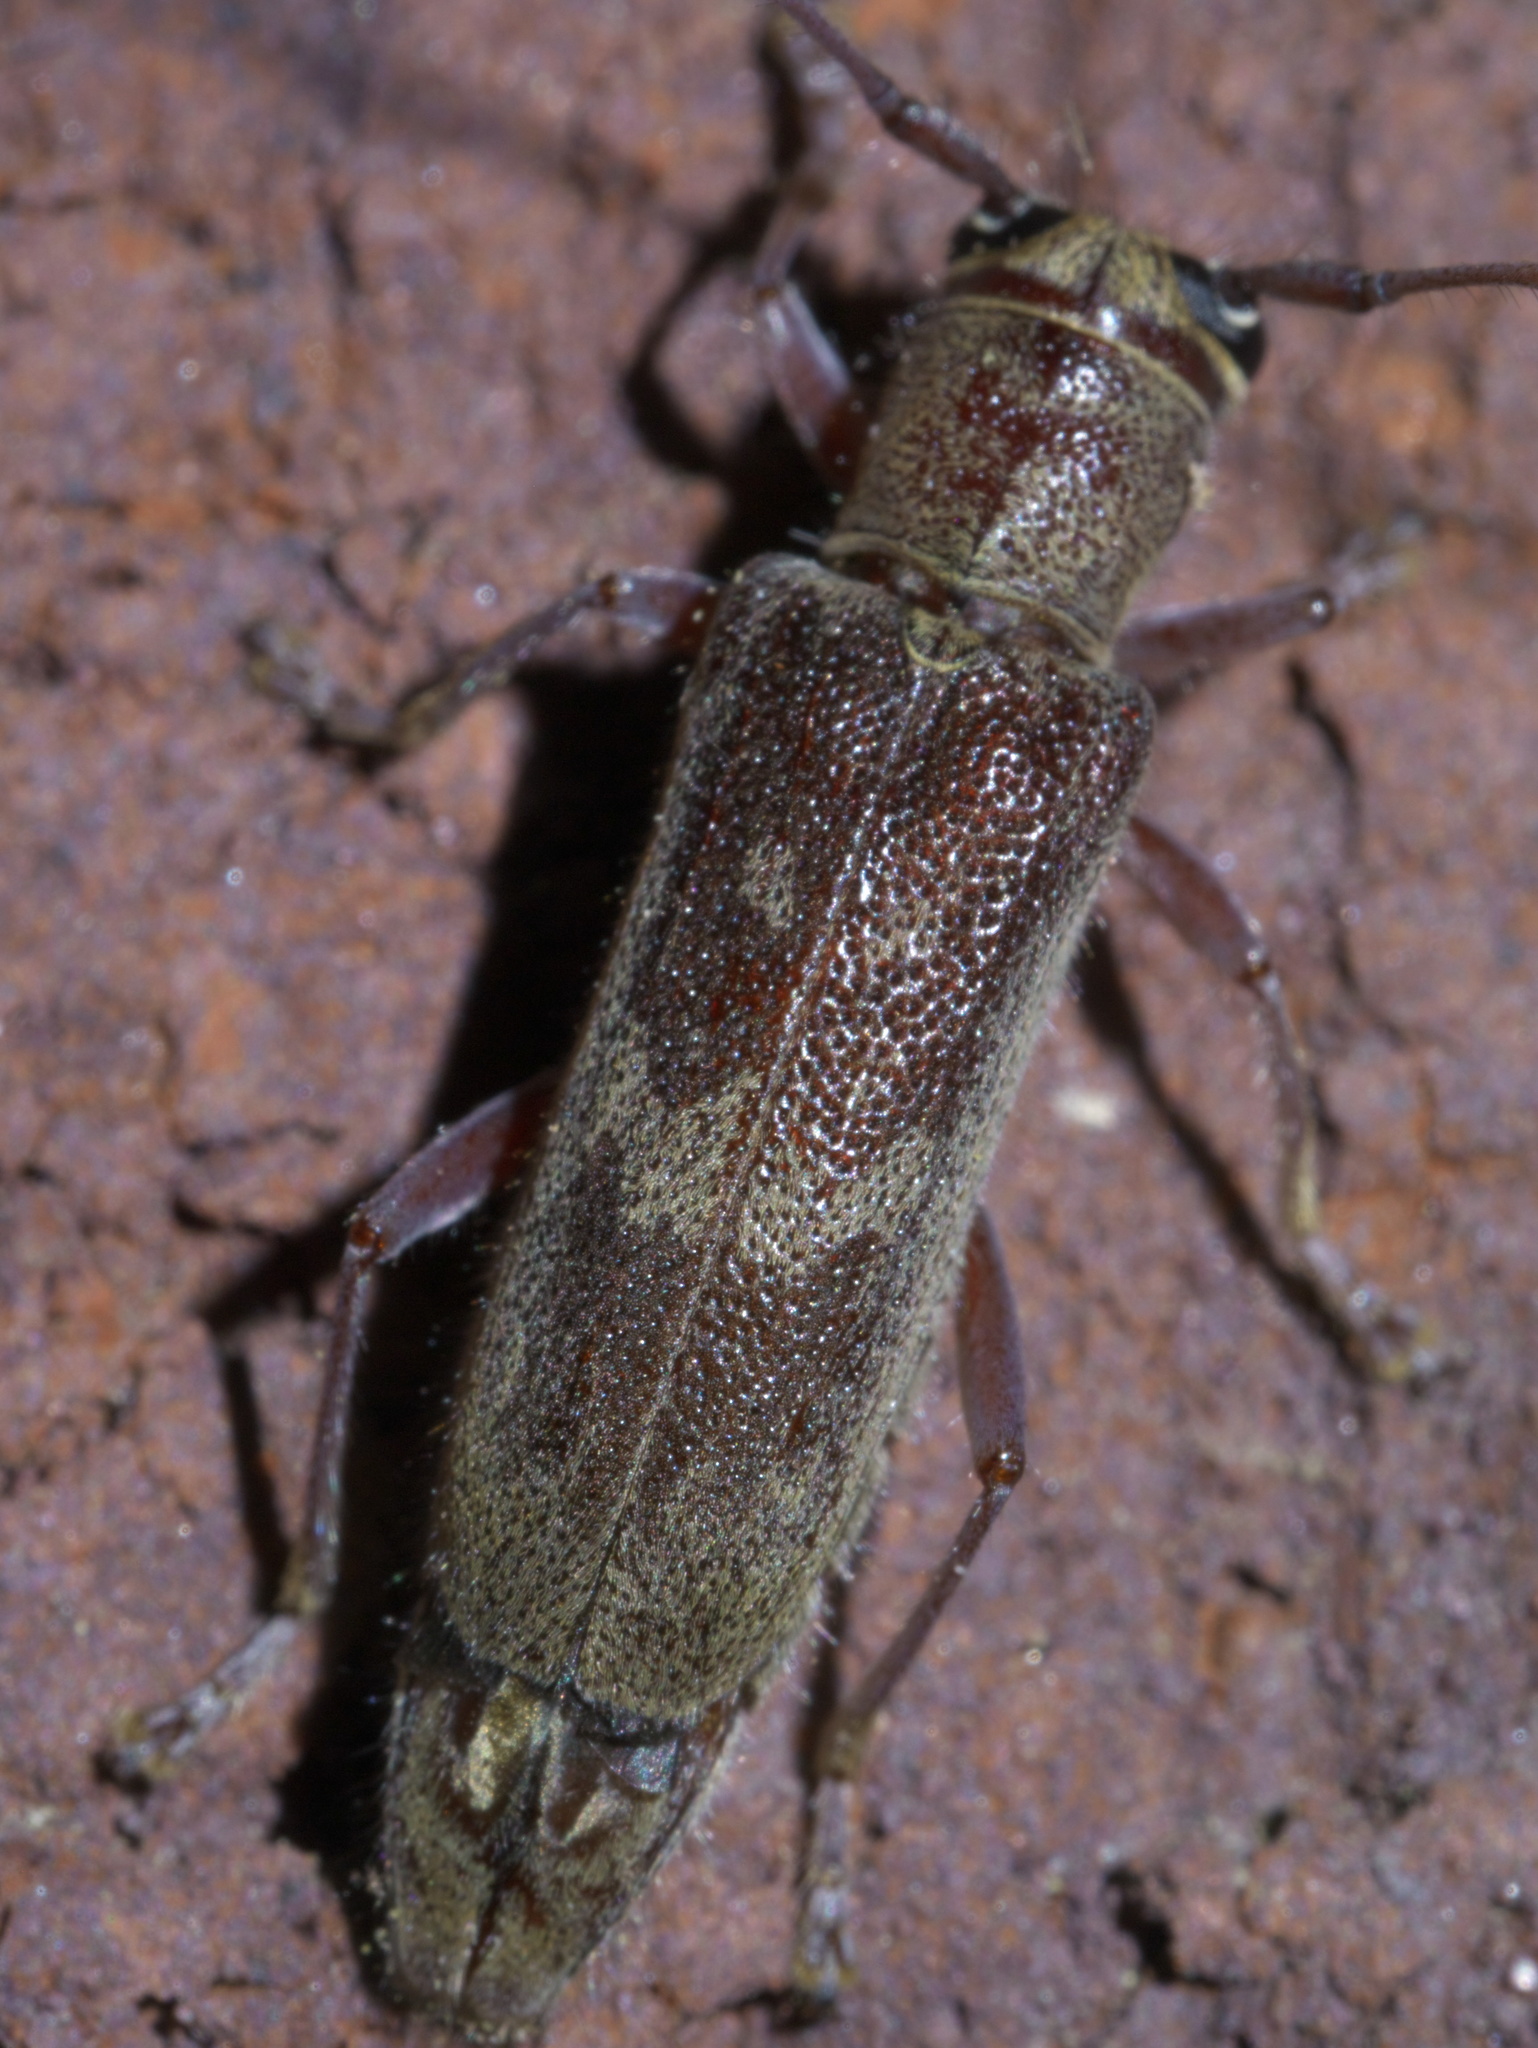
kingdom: Animalia
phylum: Arthropoda
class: Insecta
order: Coleoptera
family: Cerambycidae
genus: Saperda
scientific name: Saperda discoidea
